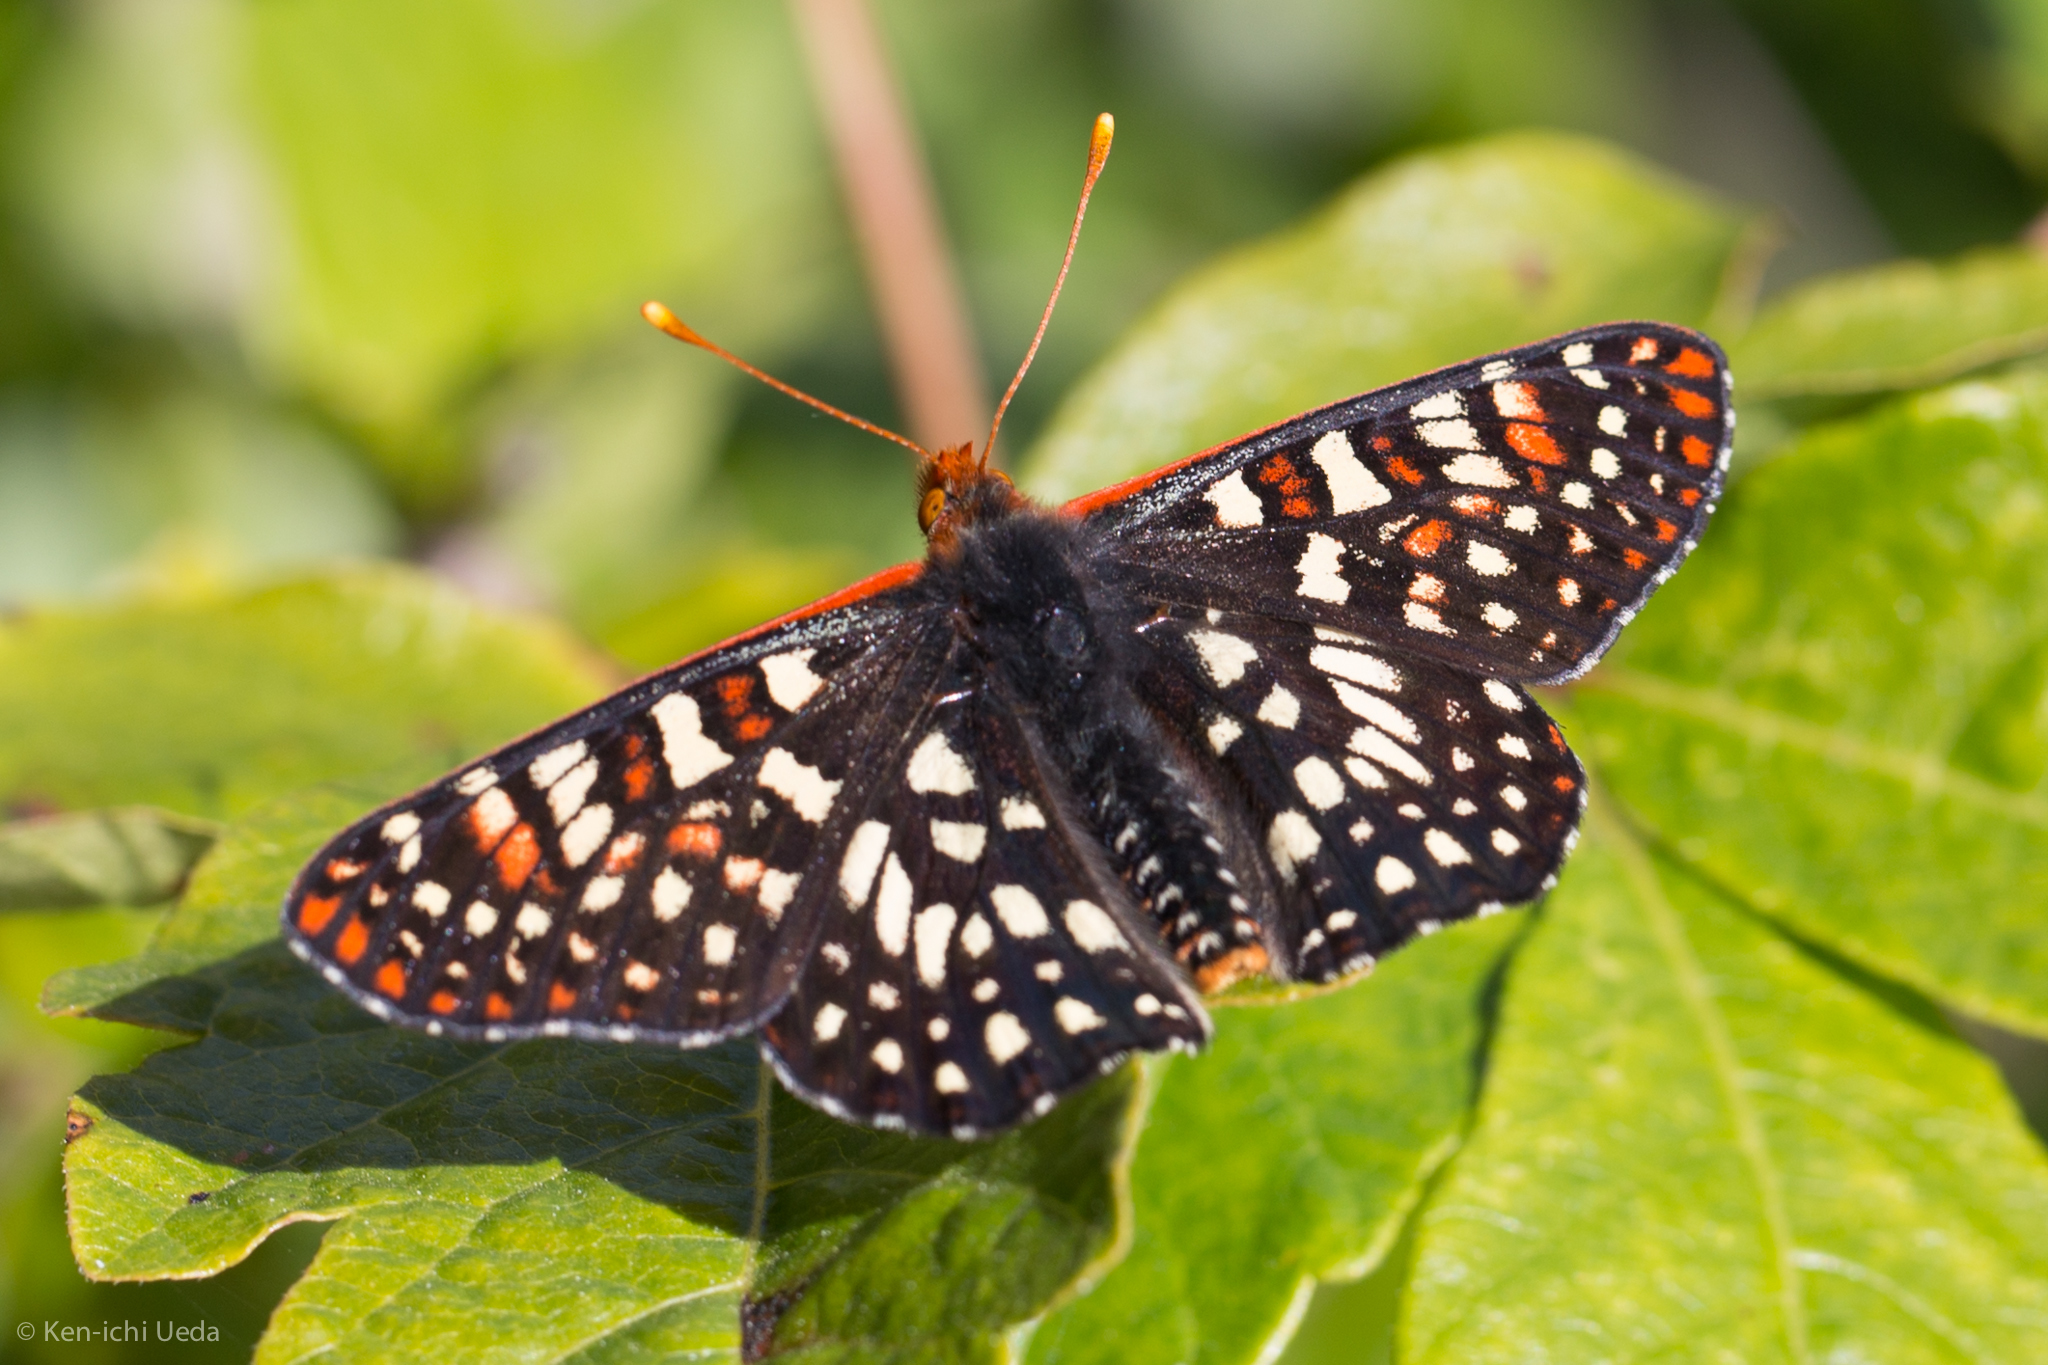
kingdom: Animalia
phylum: Arthropoda
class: Insecta
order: Lepidoptera
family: Nymphalidae
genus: Occidryas
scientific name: Occidryas chalcedona
